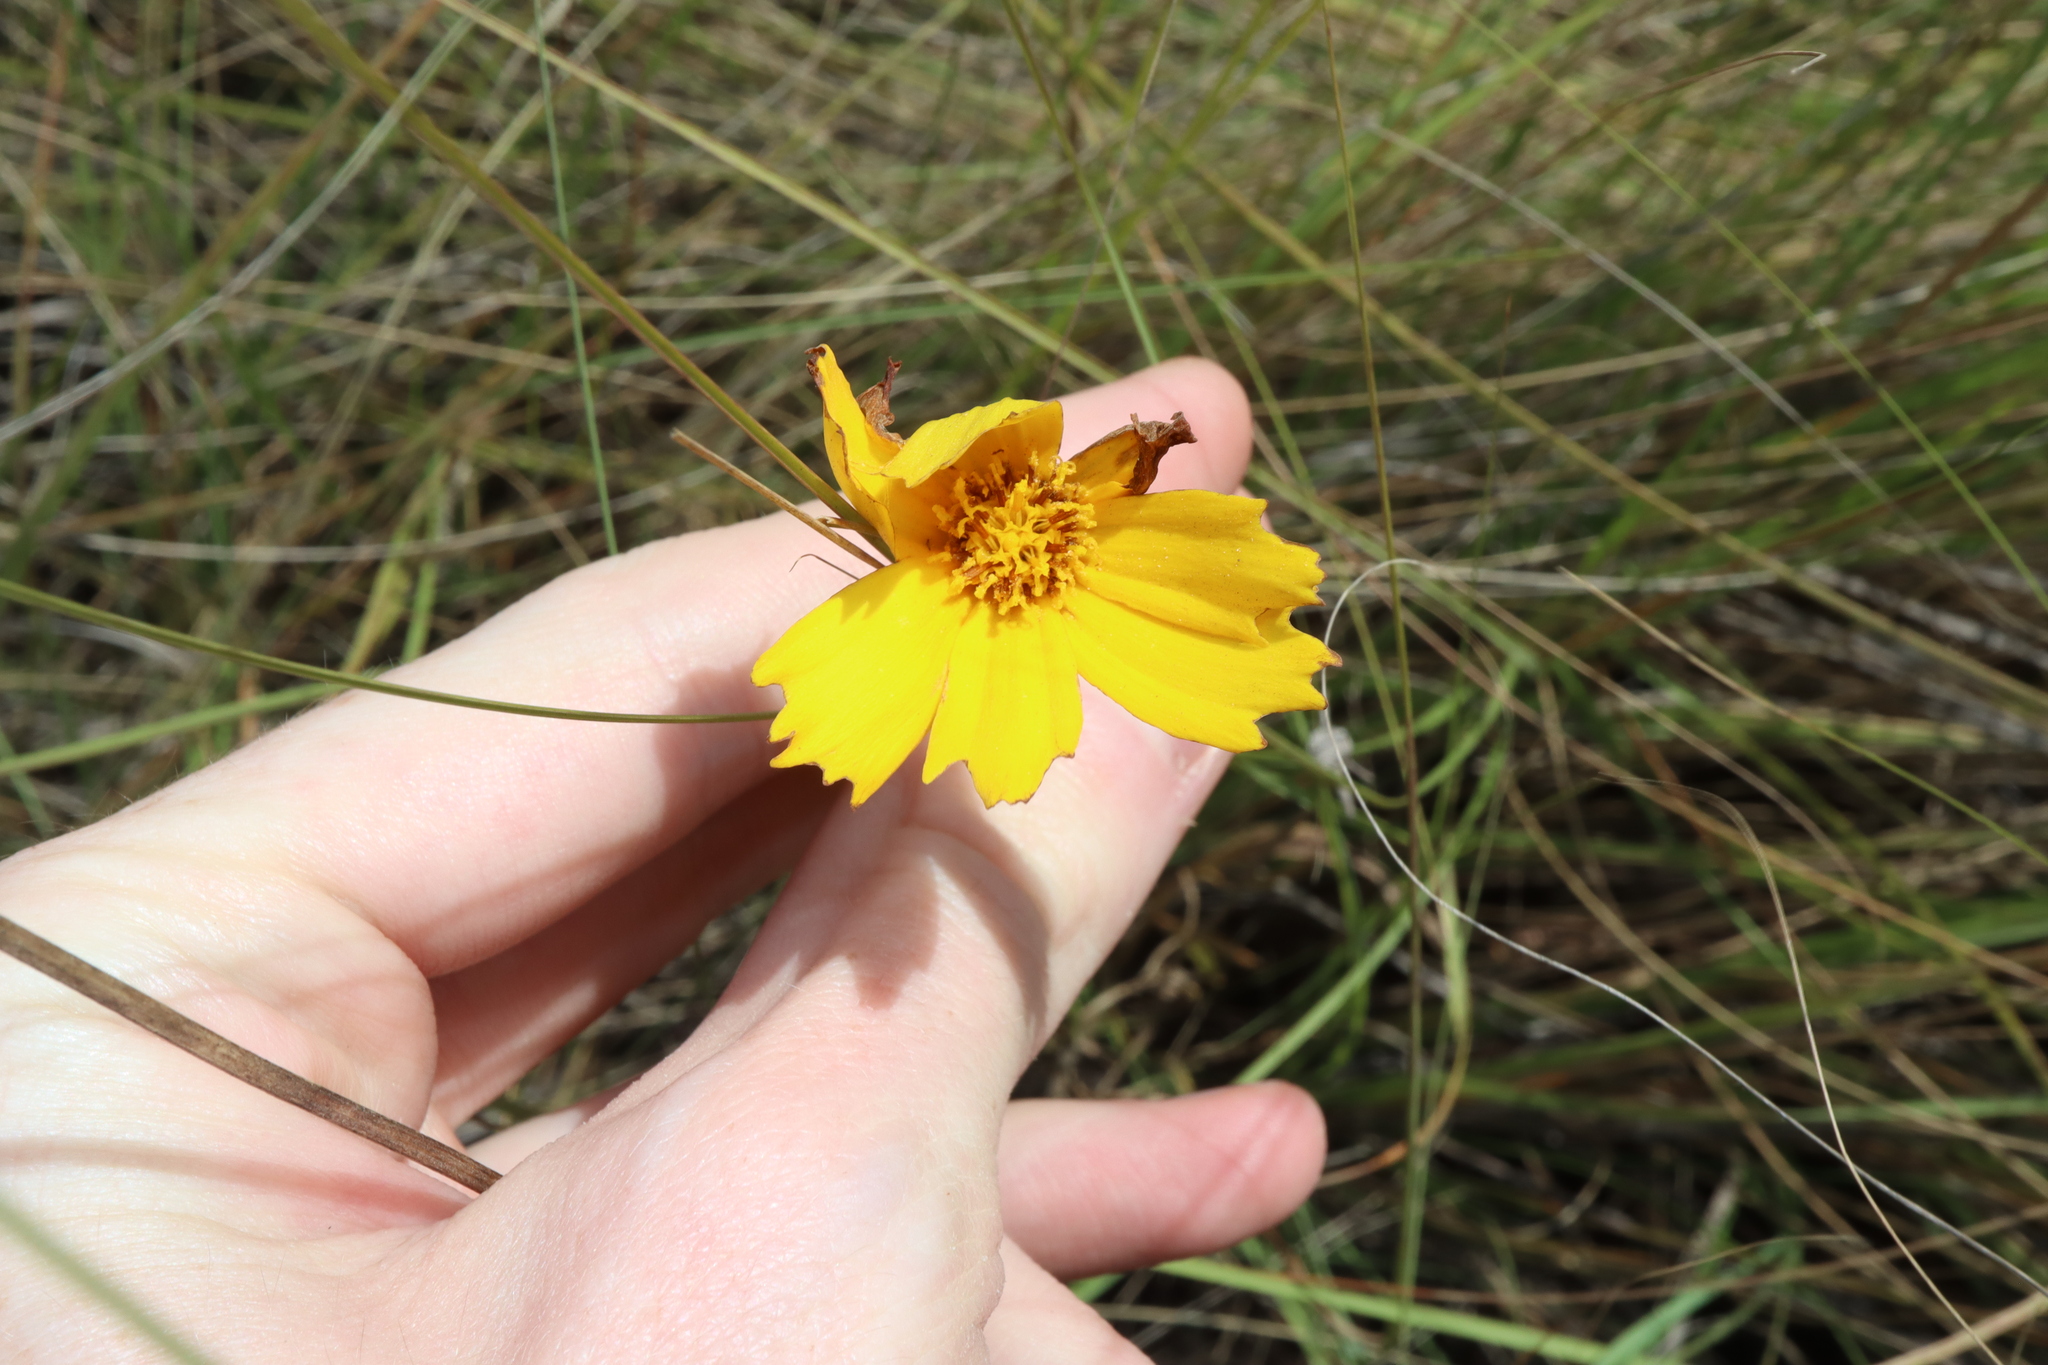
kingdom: Plantae
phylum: Tracheophyta
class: Magnoliopsida
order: Asterales
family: Asteraceae
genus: Coreopsis
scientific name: Coreopsis lanceolata
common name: Garden coreopsis
